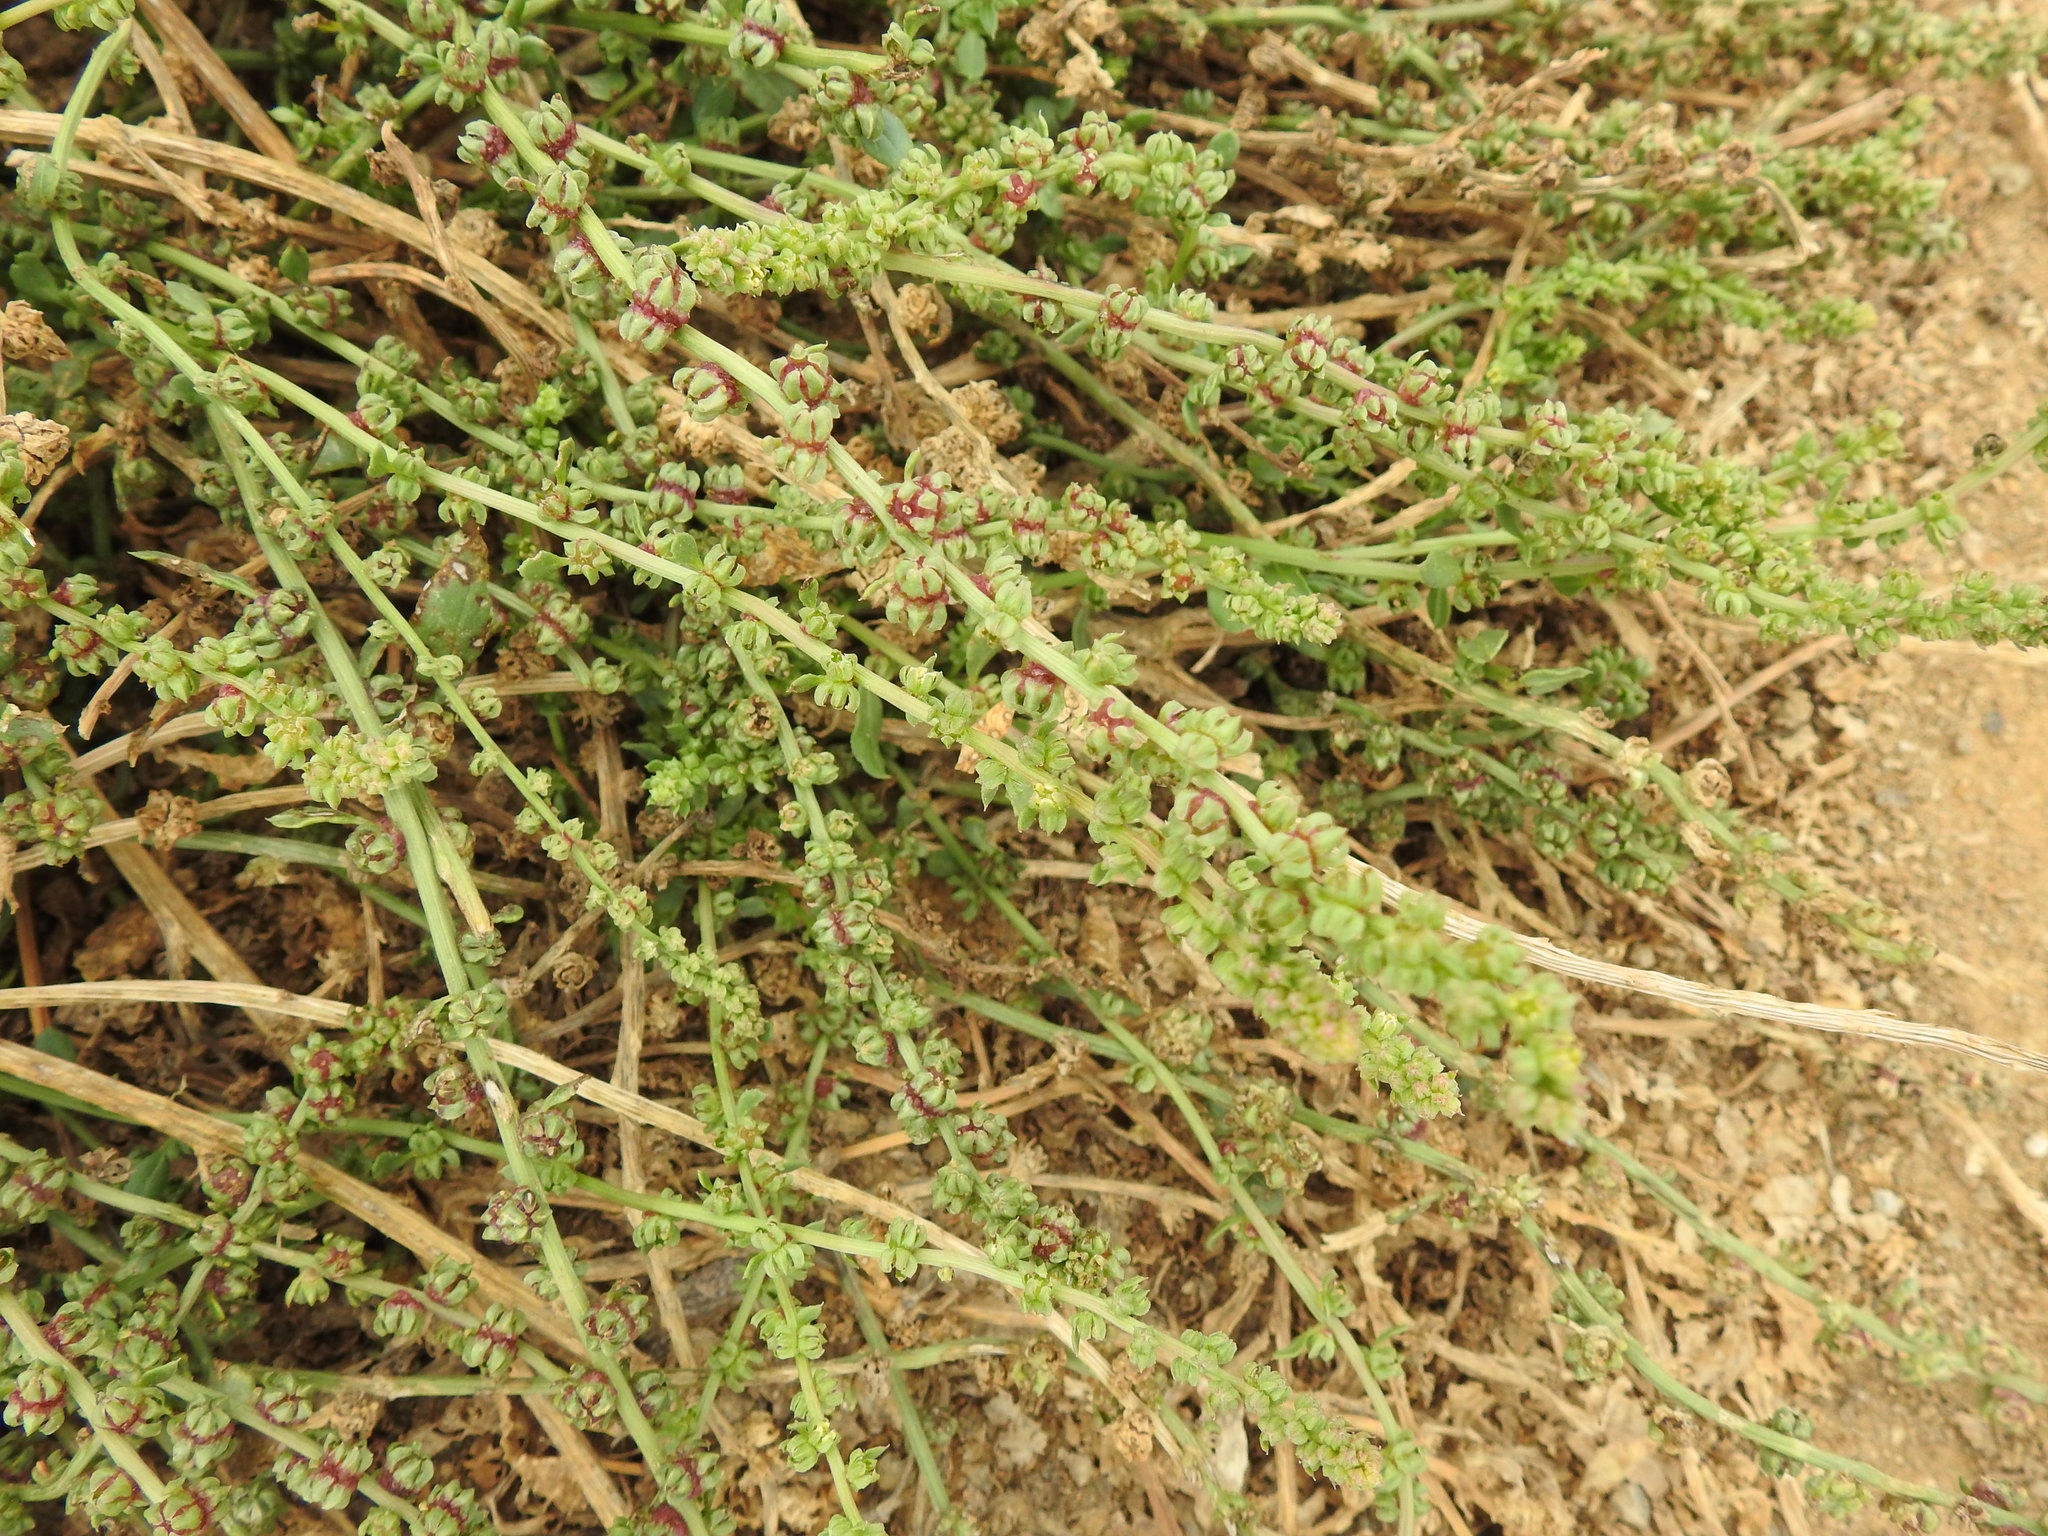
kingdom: Plantae
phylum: Tracheophyta
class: Magnoliopsida
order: Caryophyllales
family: Amaranthaceae
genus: Beta
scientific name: Beta macrocarpa
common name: Beet
